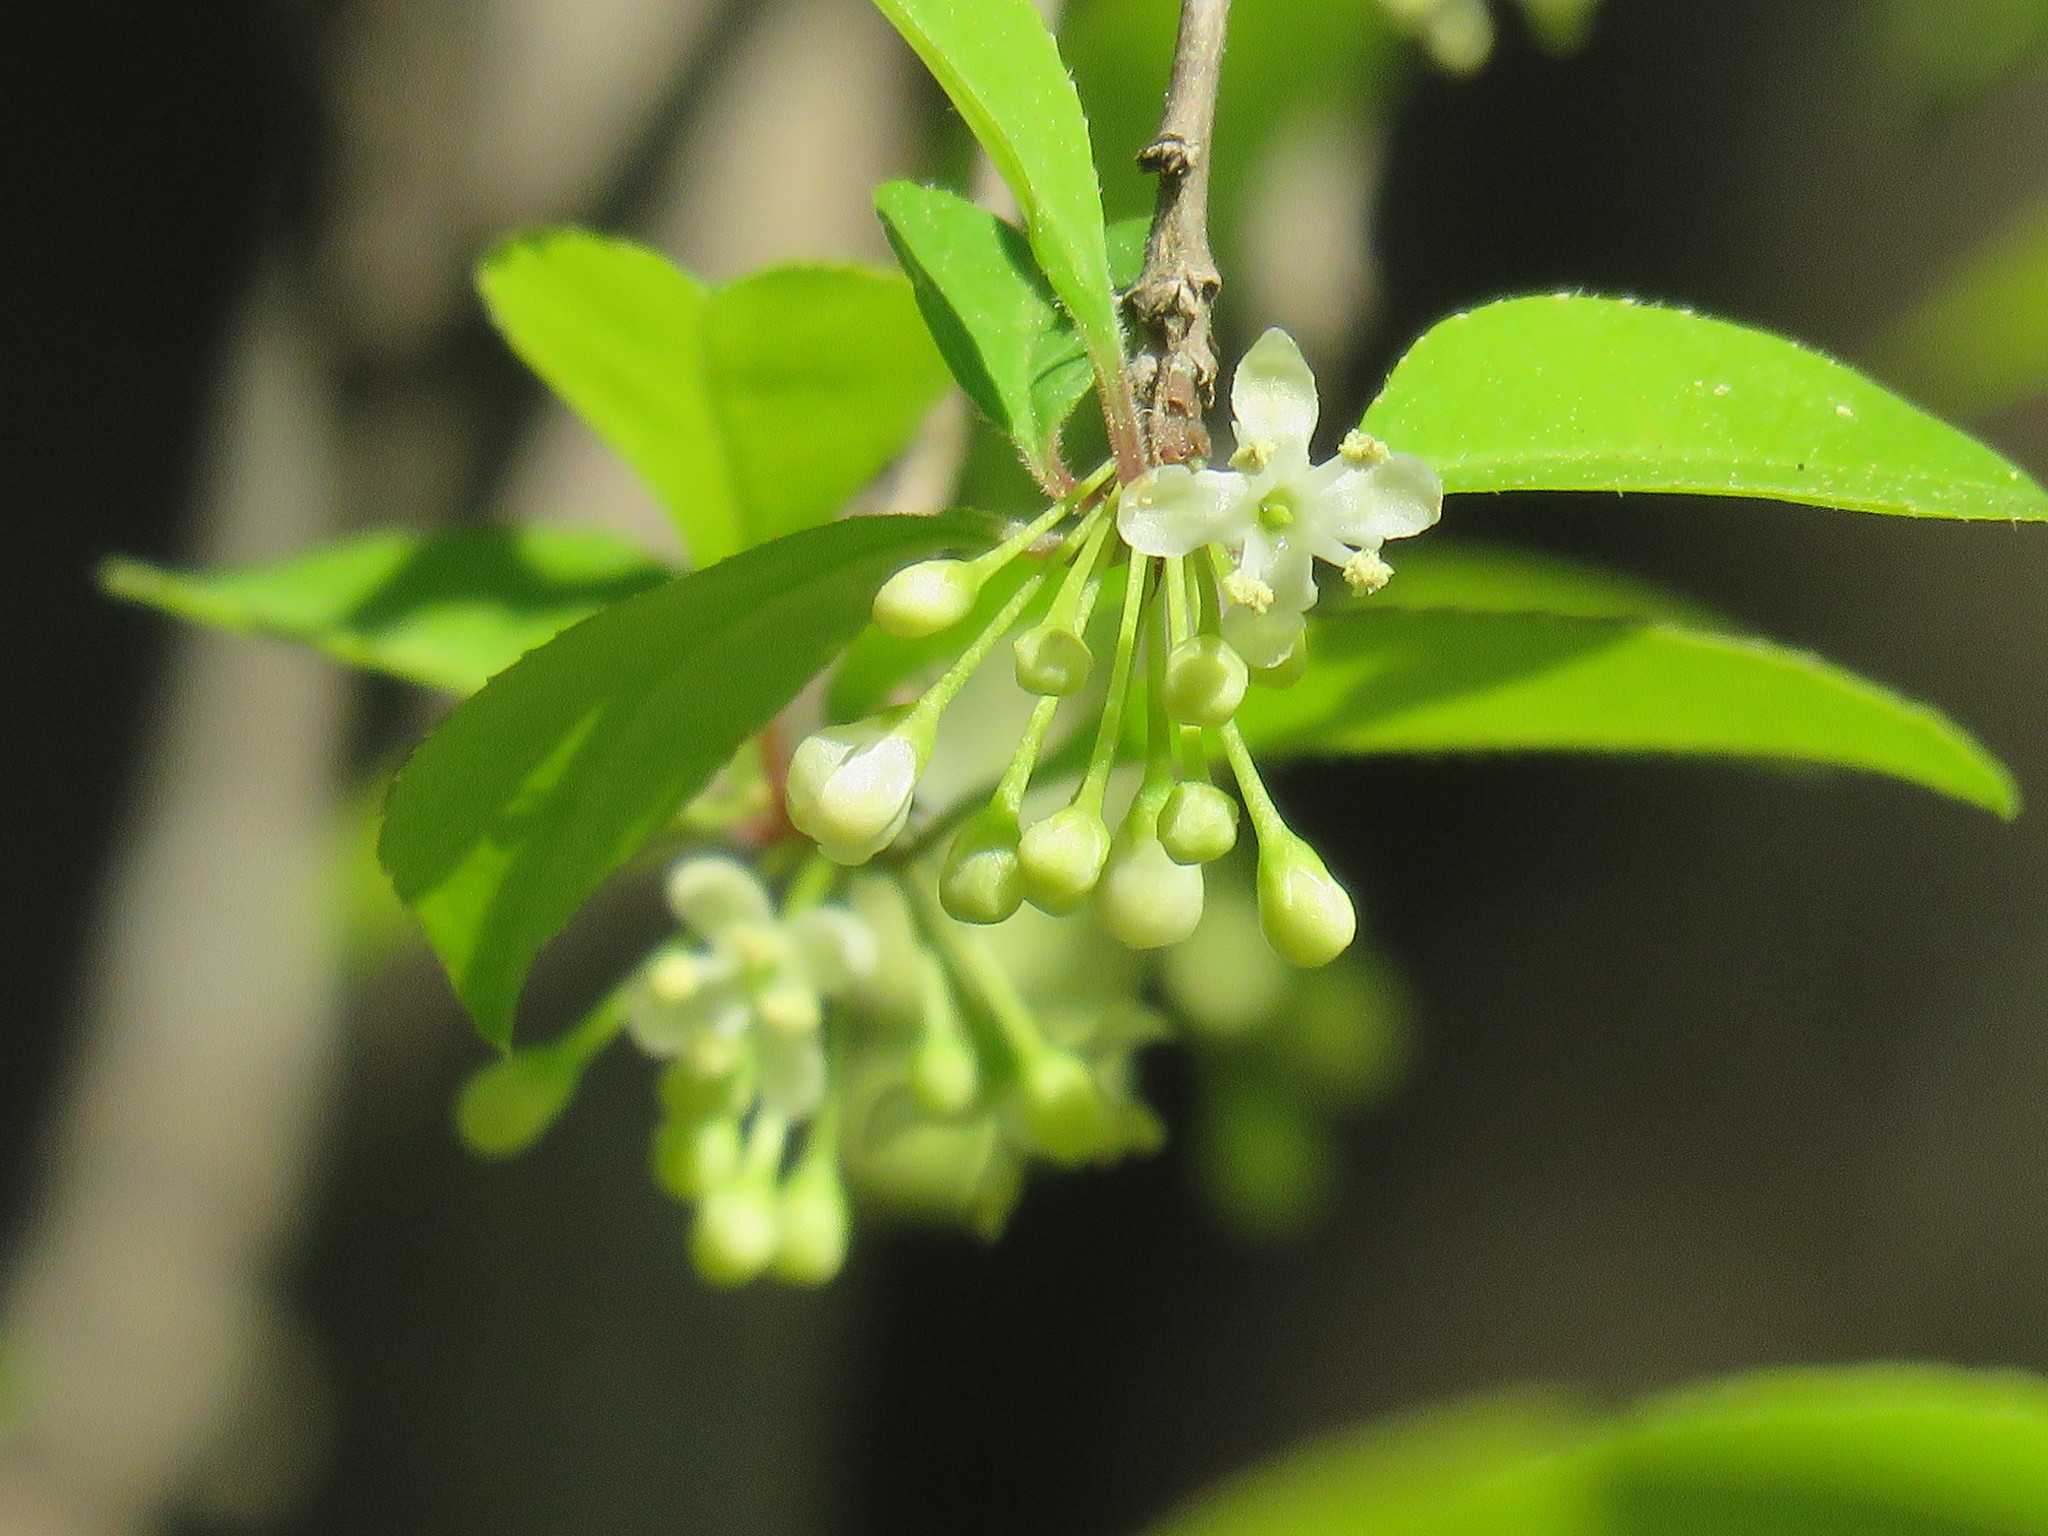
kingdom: Plantae
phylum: Tracheophyta
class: Magnoliopsida
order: Aquifoliales
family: Aquifoliaceae
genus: Ilex
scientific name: Ilex decidua
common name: Possum-haw
